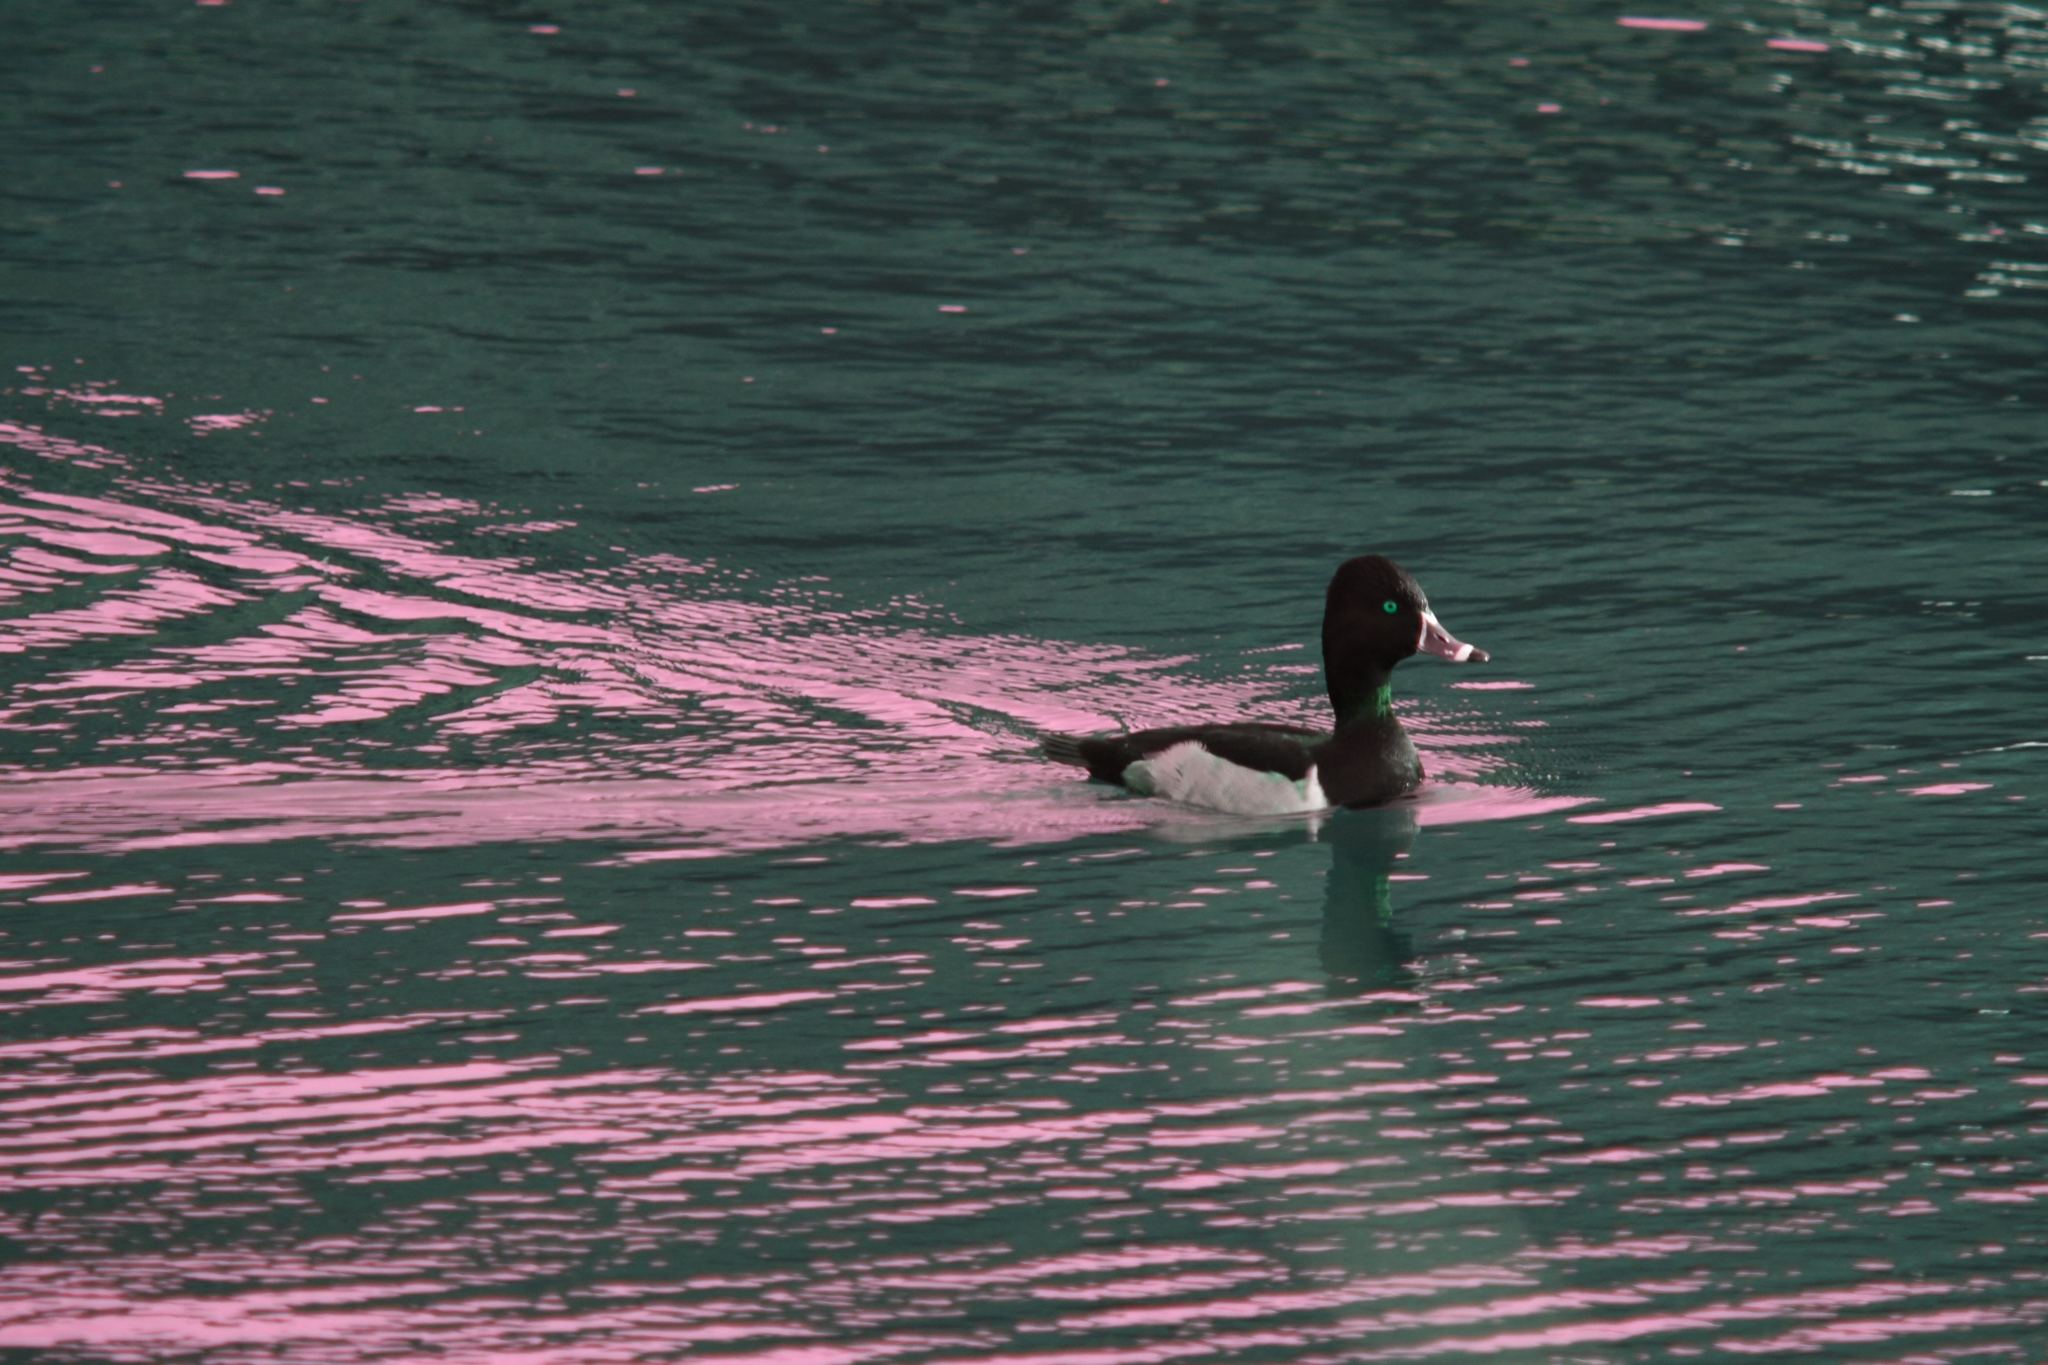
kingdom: Animalia
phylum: Chordata
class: Aves
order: Anseriformes
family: Anatidae
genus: Aythya
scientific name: Aythya collaris
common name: Ring-necked duck
